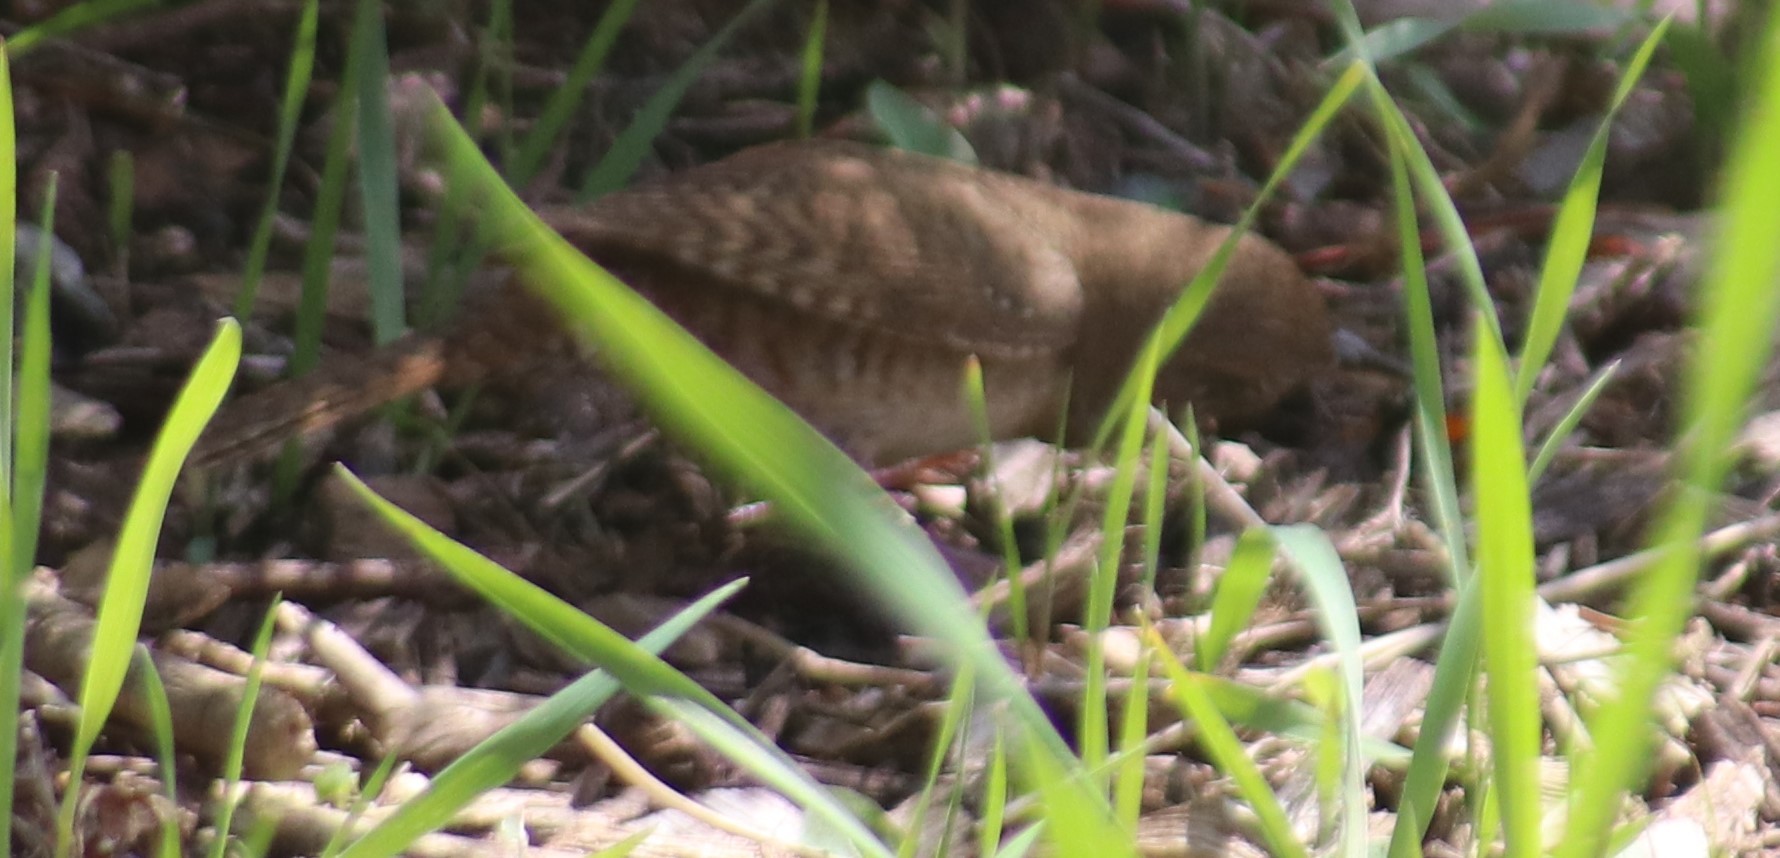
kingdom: Animalia
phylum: Chordata
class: Aves
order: Passeriformes
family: Troglodytidae
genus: Troglodytes
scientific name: Troglodytes aedon
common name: House wren
